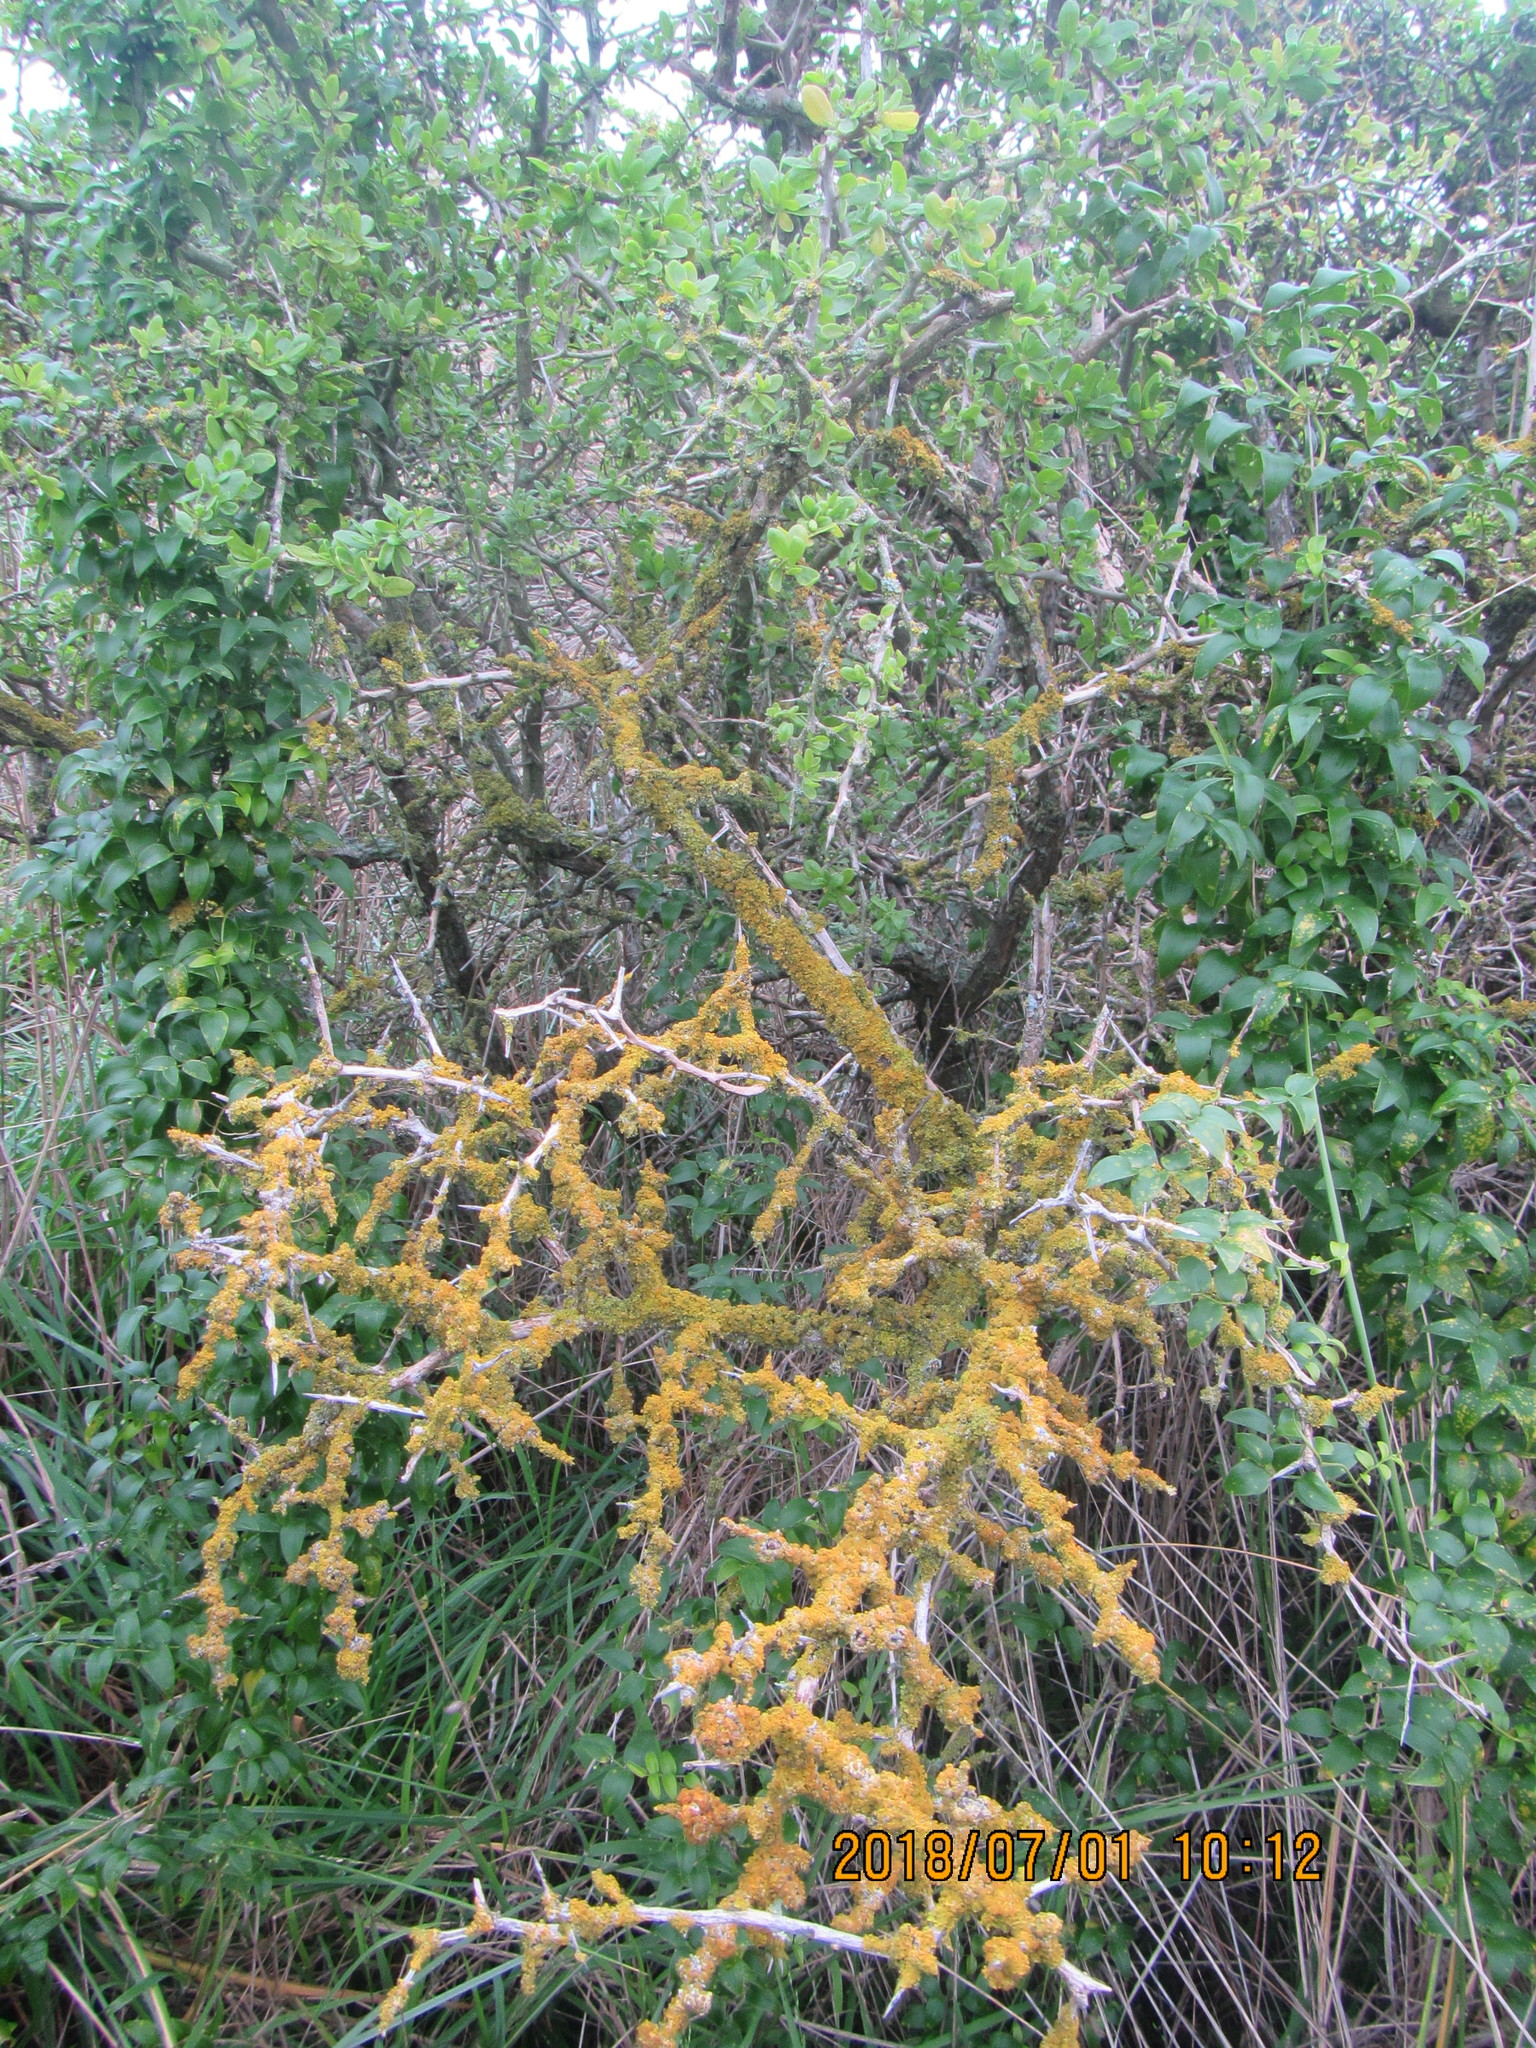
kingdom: Plantae
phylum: Tracheophyta
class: Magnoliopsida
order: Solanales
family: Solanaceae
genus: Lycium
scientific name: Lycium ferocissimum
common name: African boxthorn
